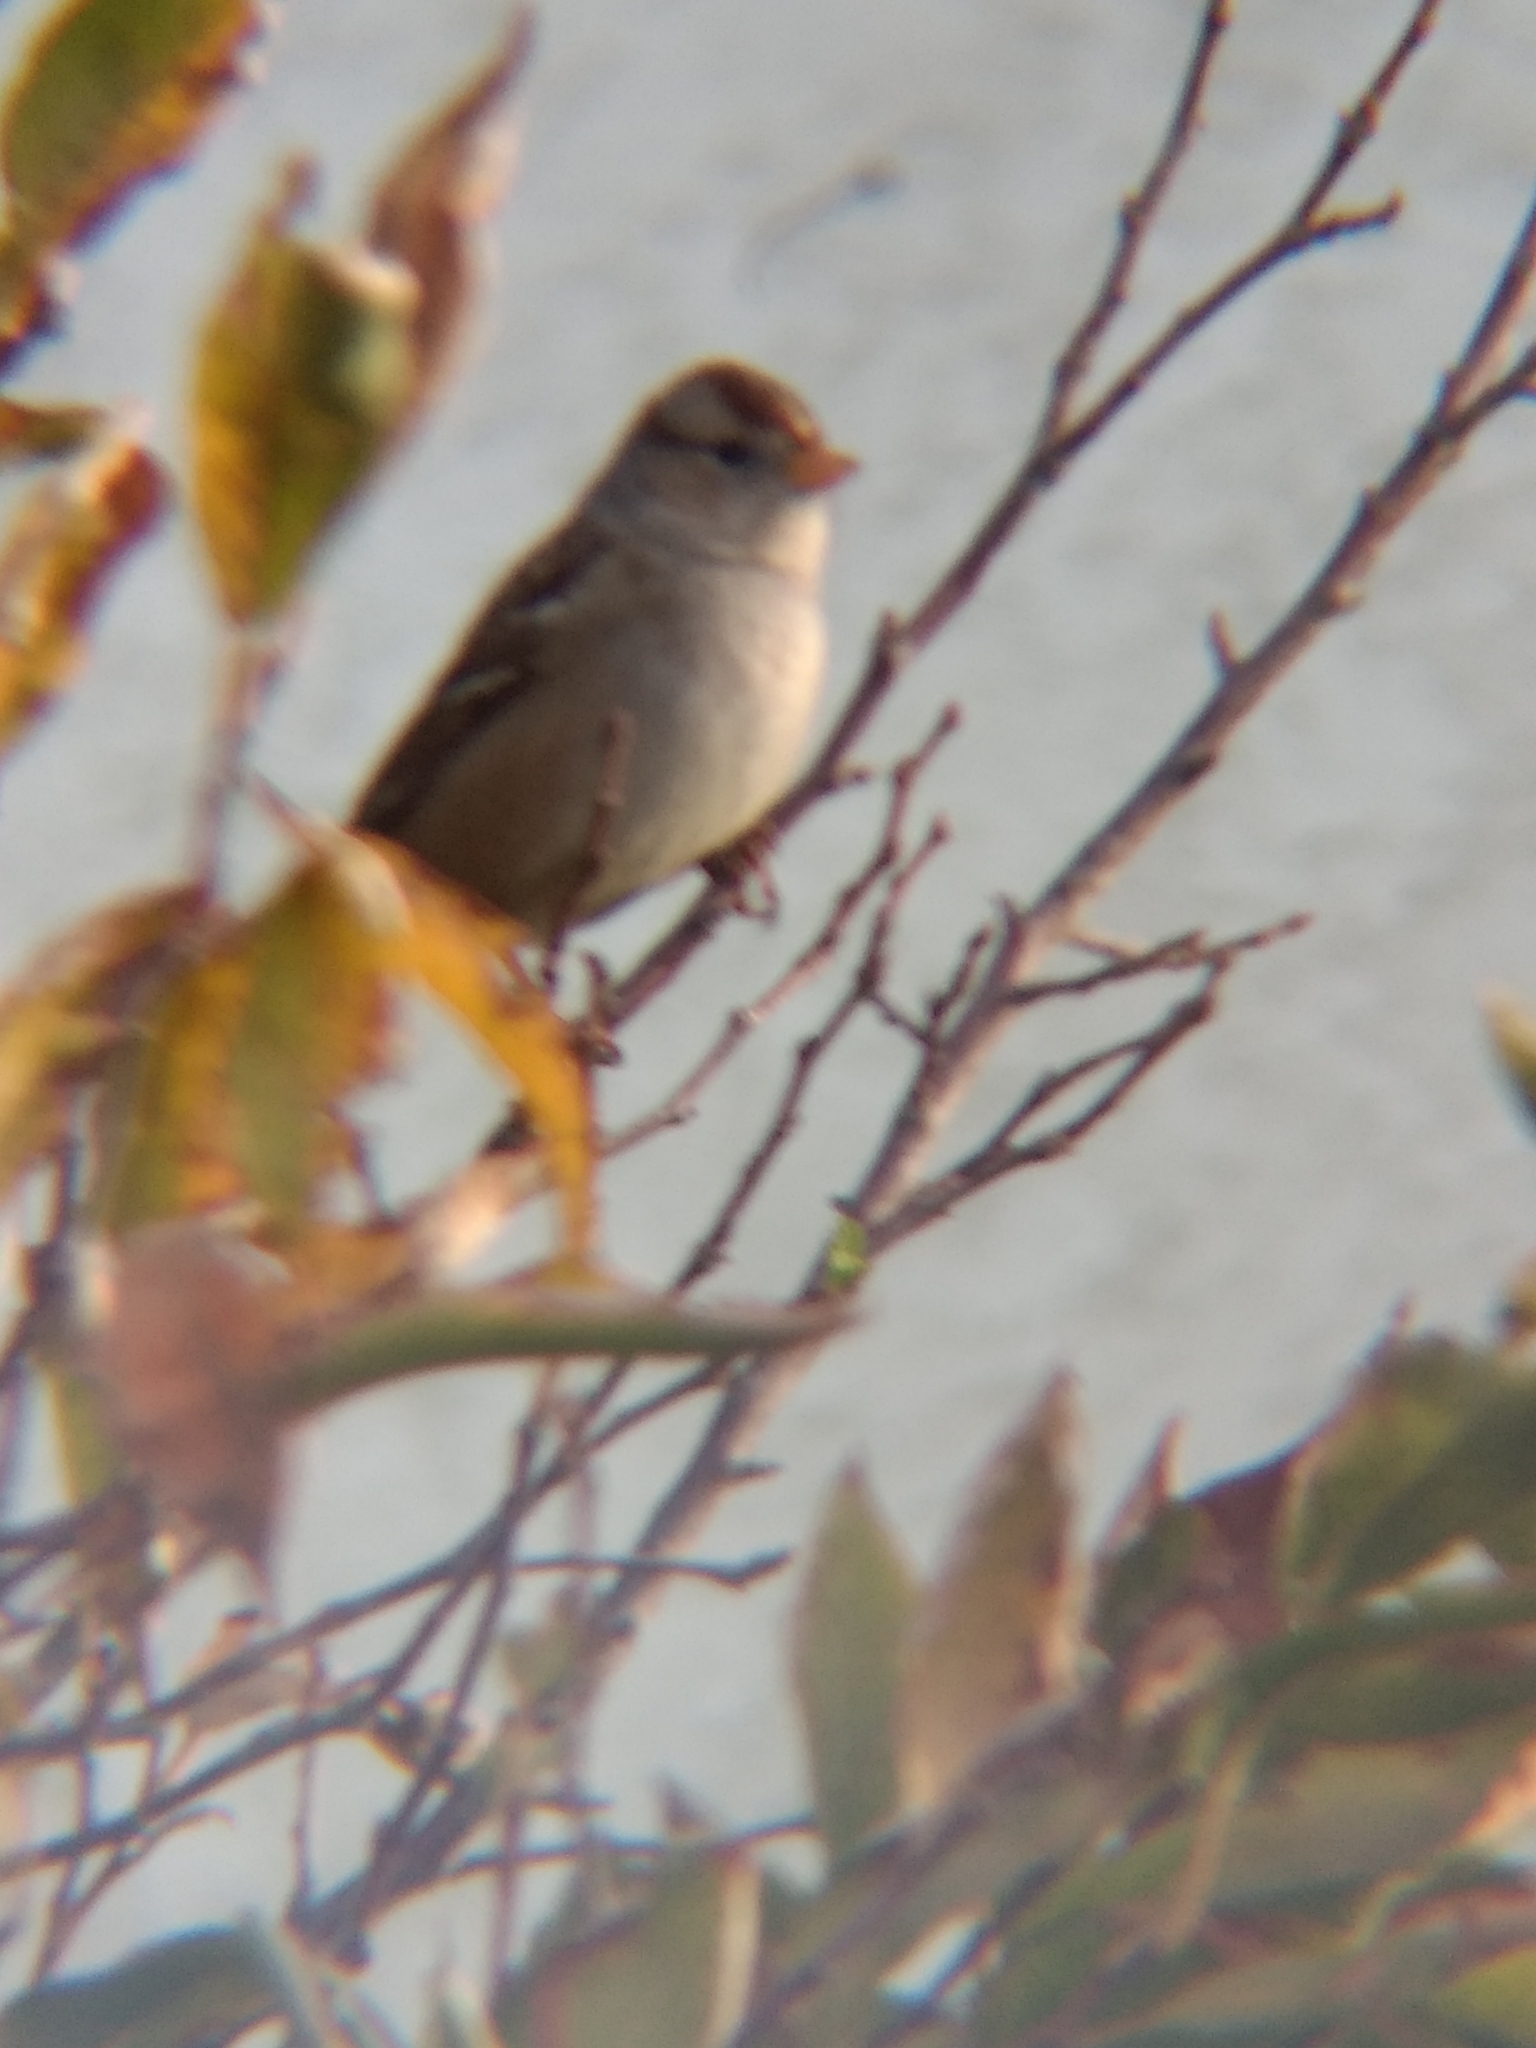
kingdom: Animalia
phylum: Chordata
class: Aves
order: Passeriformes
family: Passerellidae
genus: Zonotrichia
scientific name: Zonotrichia leucophrys
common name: White-crowned sparrow
